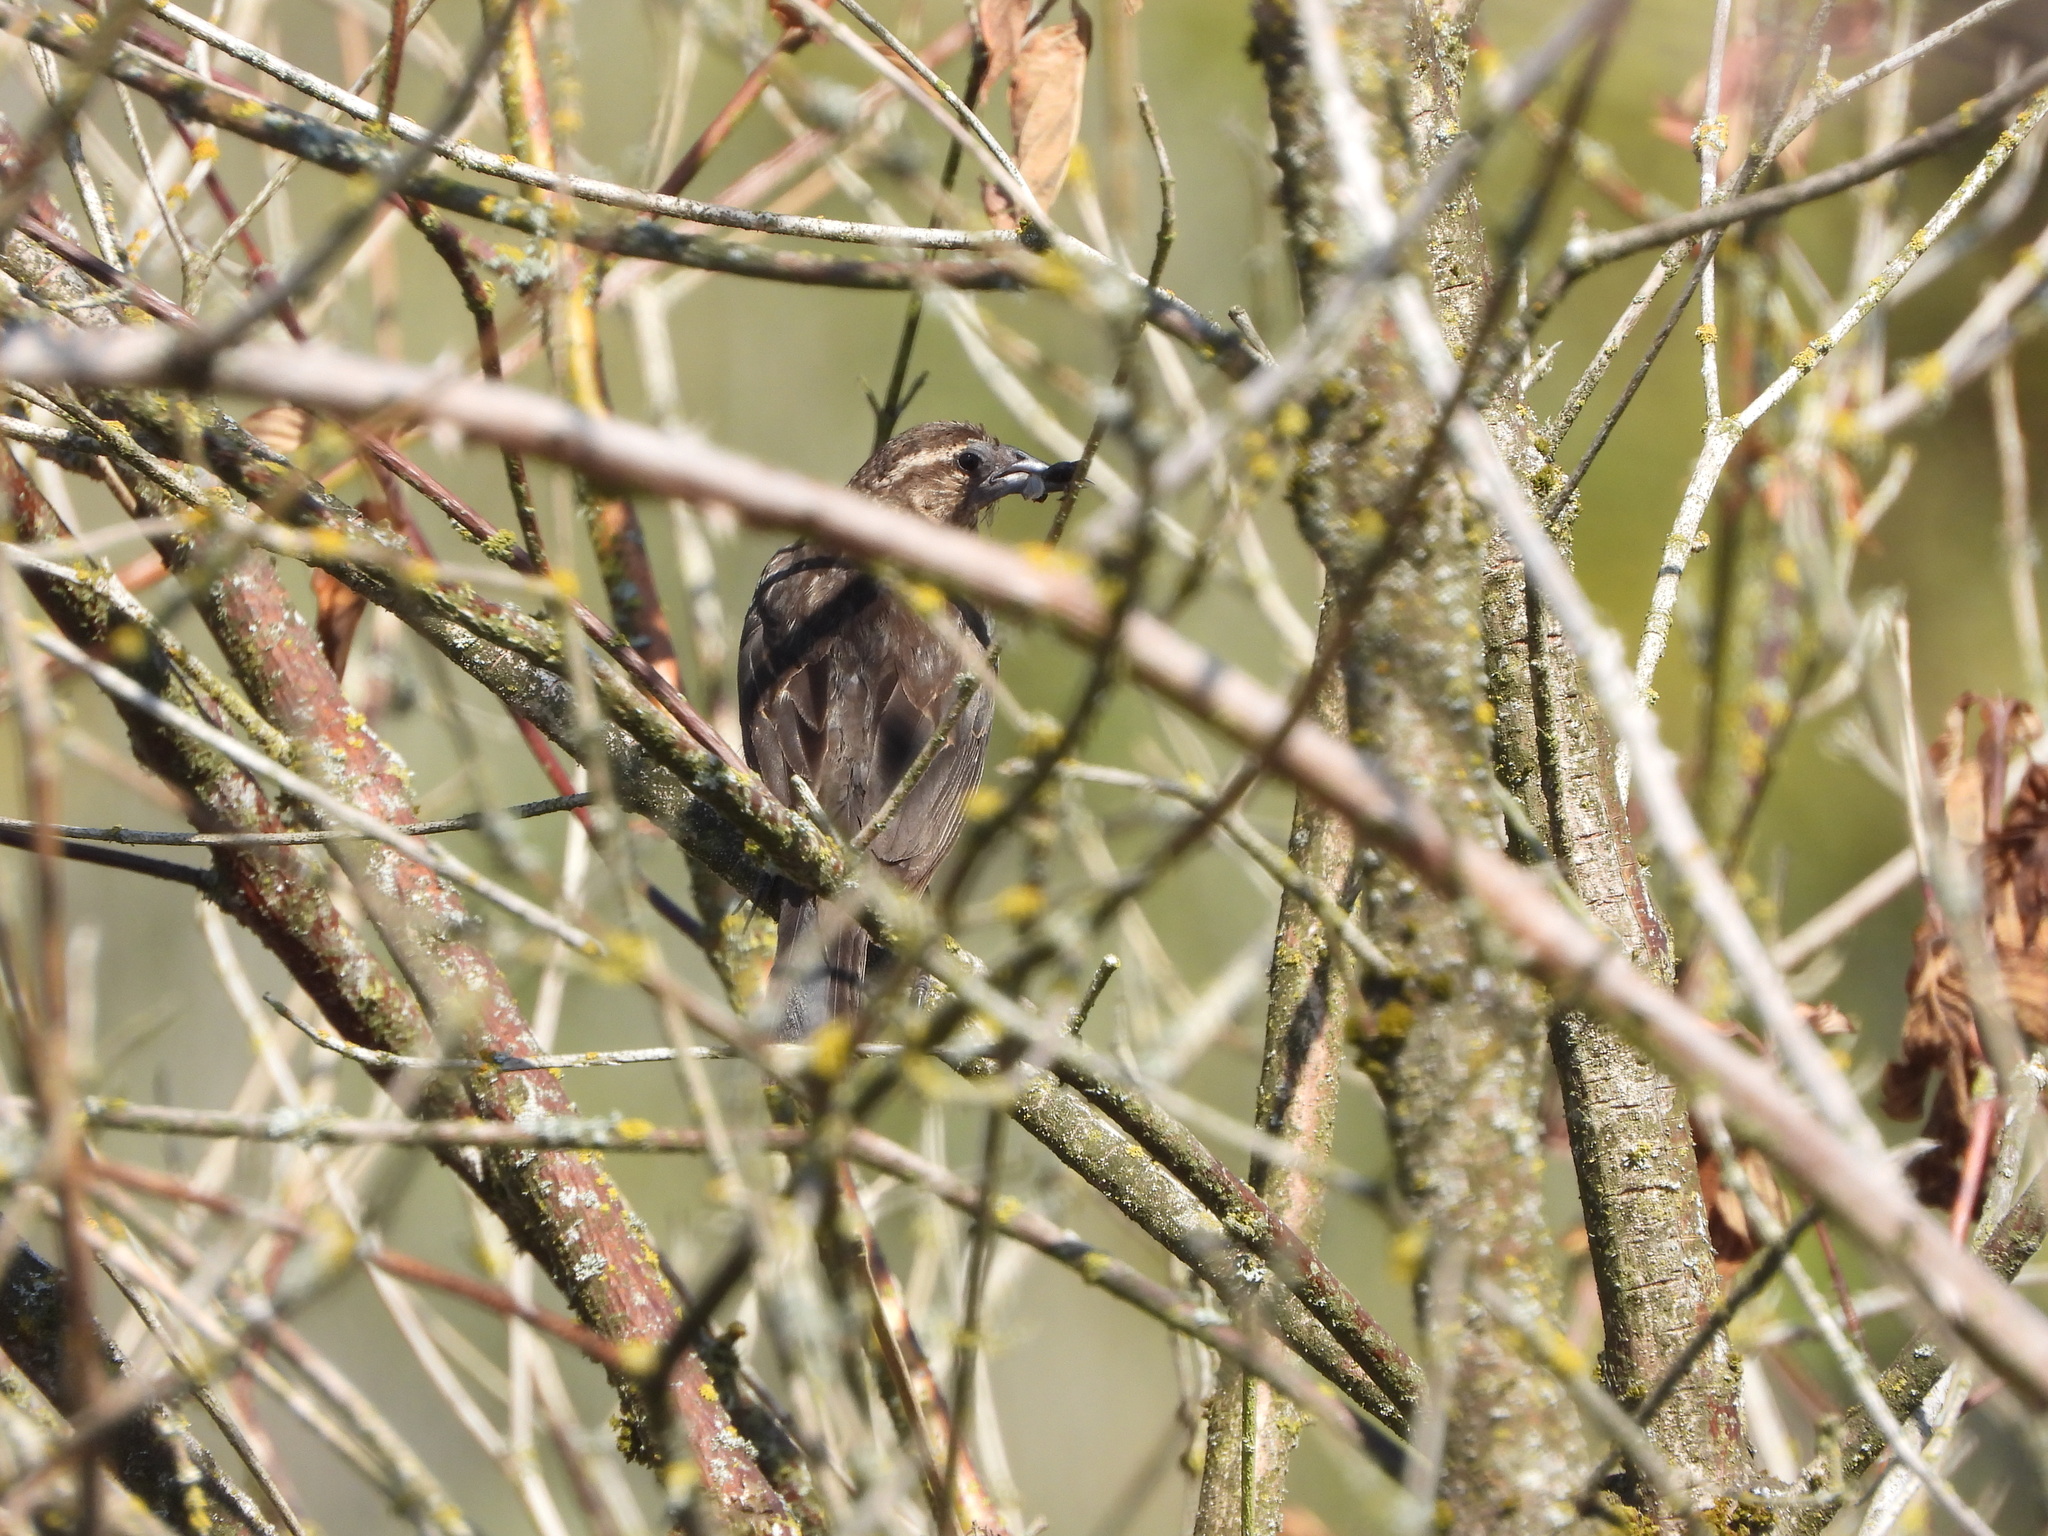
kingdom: Animalia
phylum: Chordata
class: Aves
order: Passeriformes
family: Icteridae
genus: Agelaius
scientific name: Agelaius phoeniceus
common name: Red-winged blackbird
